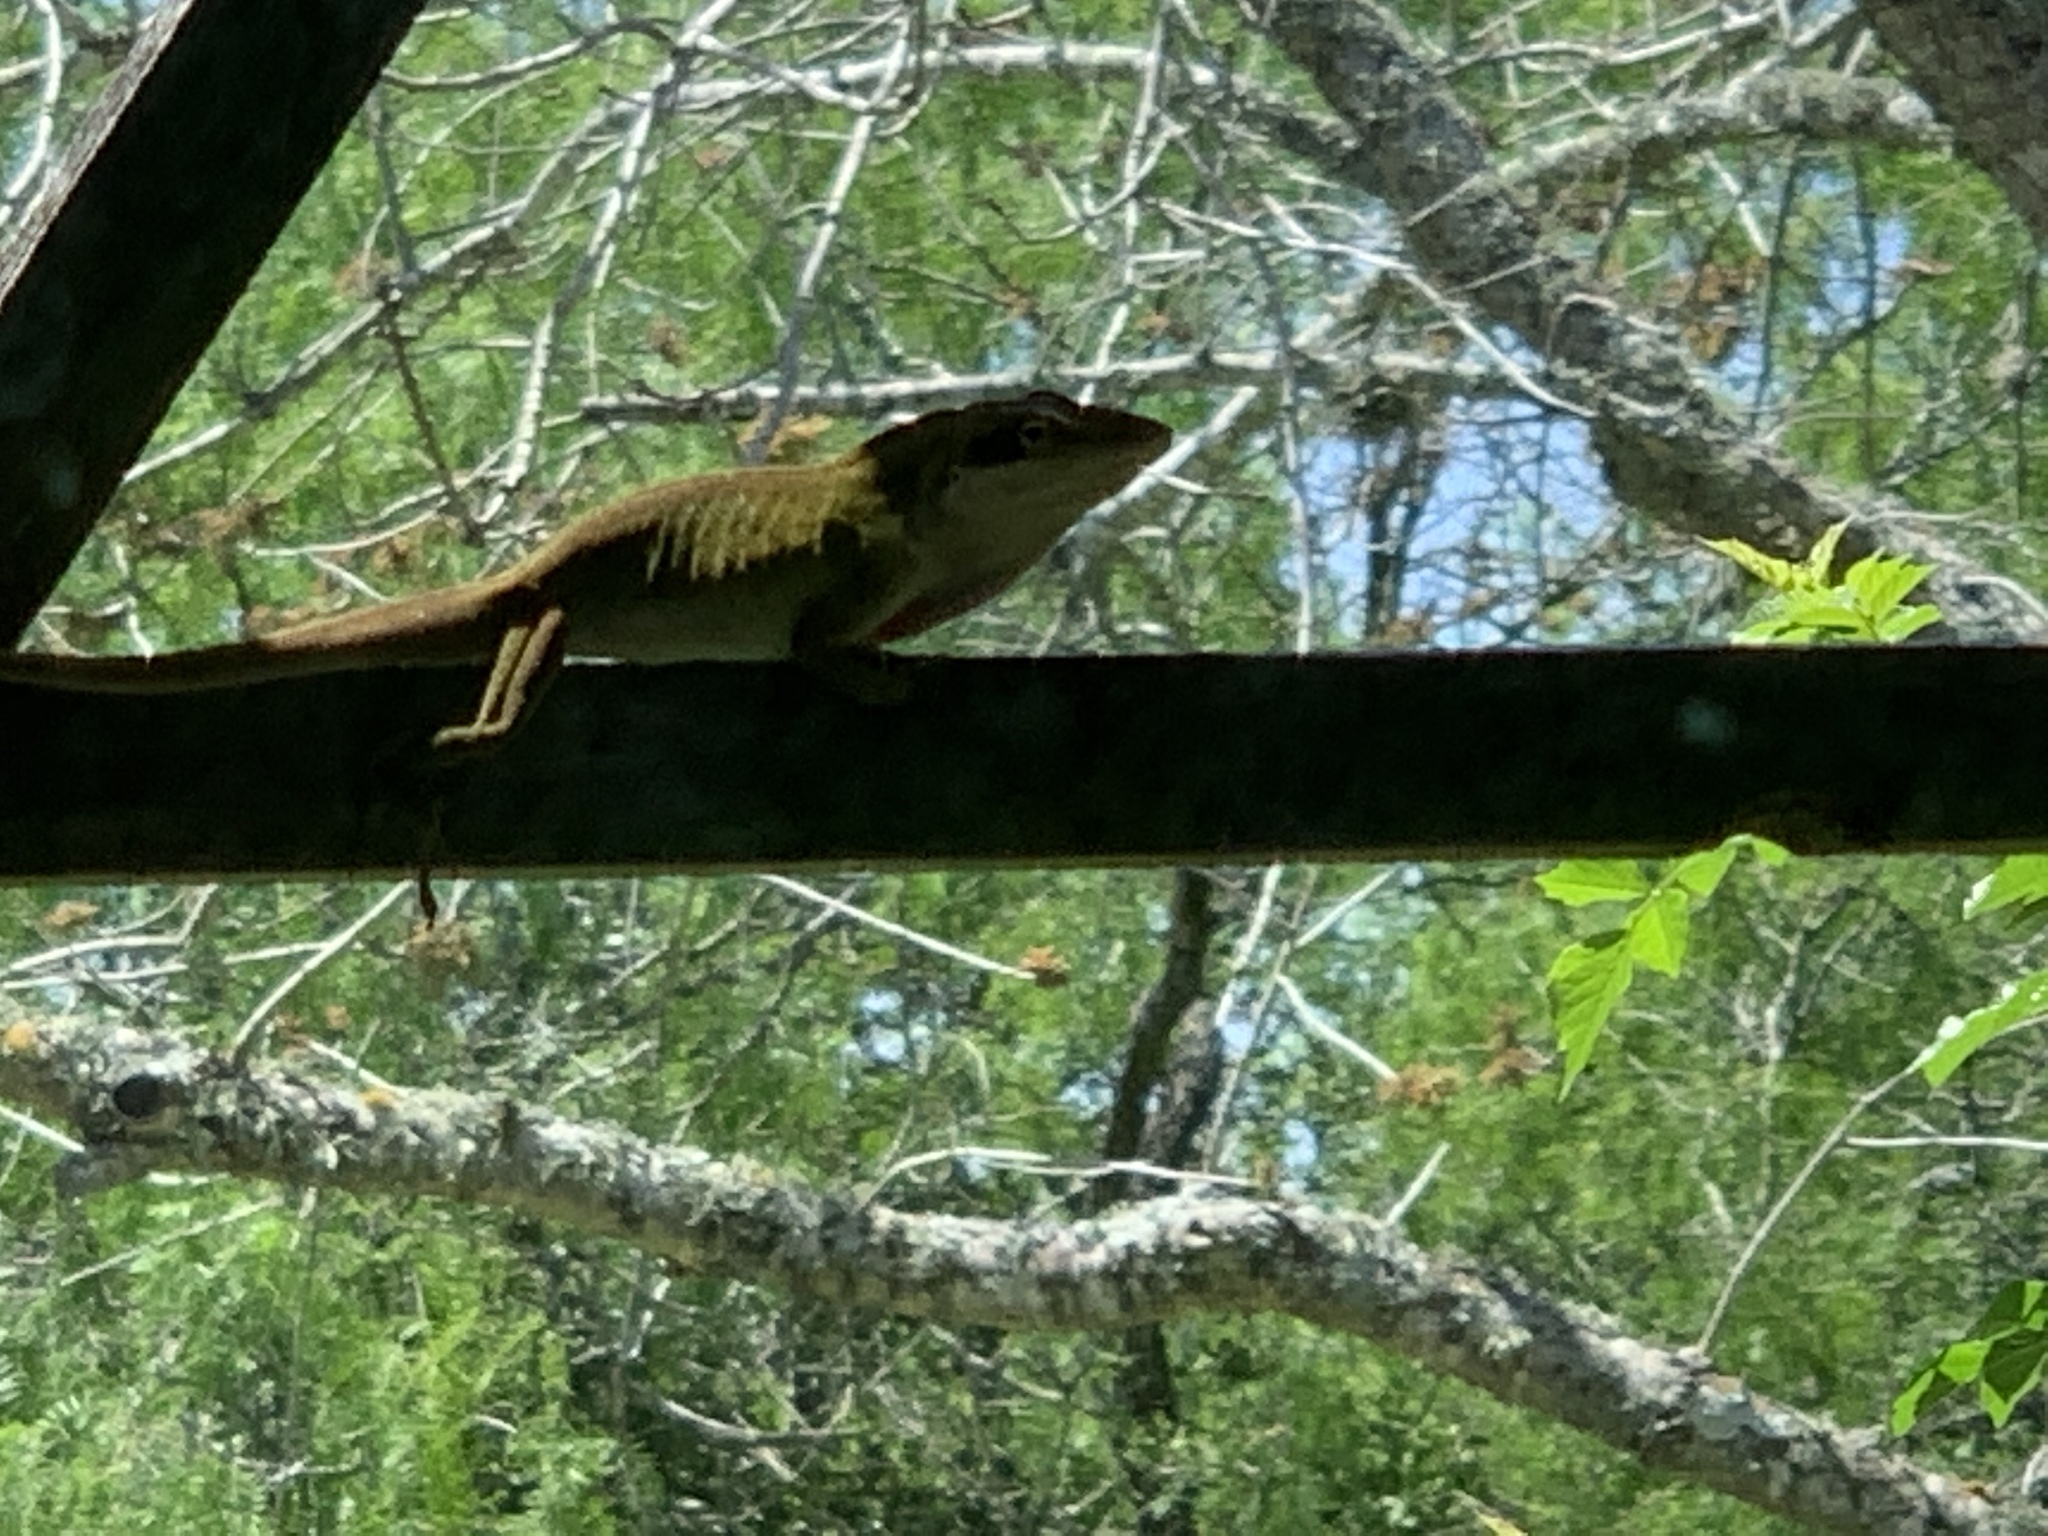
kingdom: Animalia
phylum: Chordata
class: Squamata
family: Dactyloidae
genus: Anolis
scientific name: Anolis carolinensis
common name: Green anole
